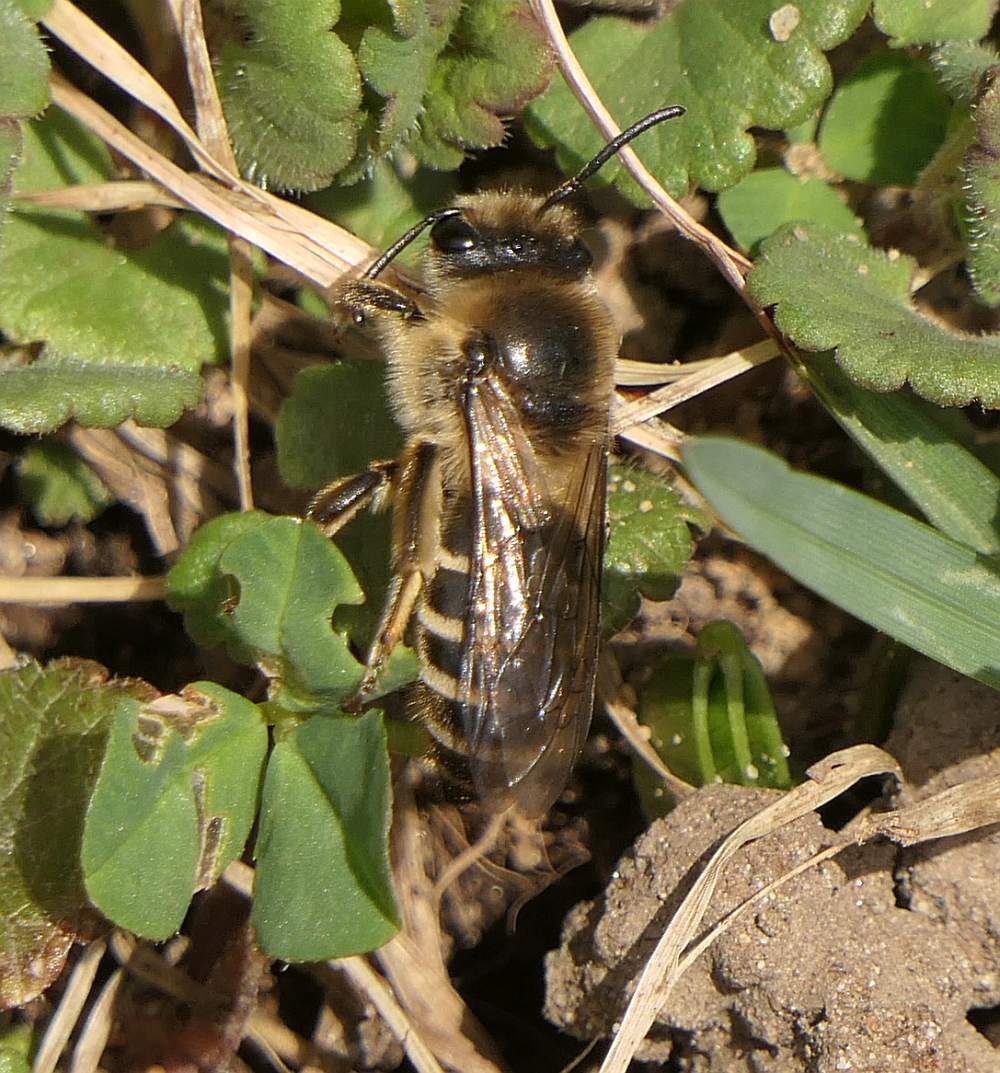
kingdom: Animalia
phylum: Arthropoda
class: Insecta
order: Hymenoptera
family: Colletidae
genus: Colletes
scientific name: Colletes inaequalis
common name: Unequal cellophane bee
